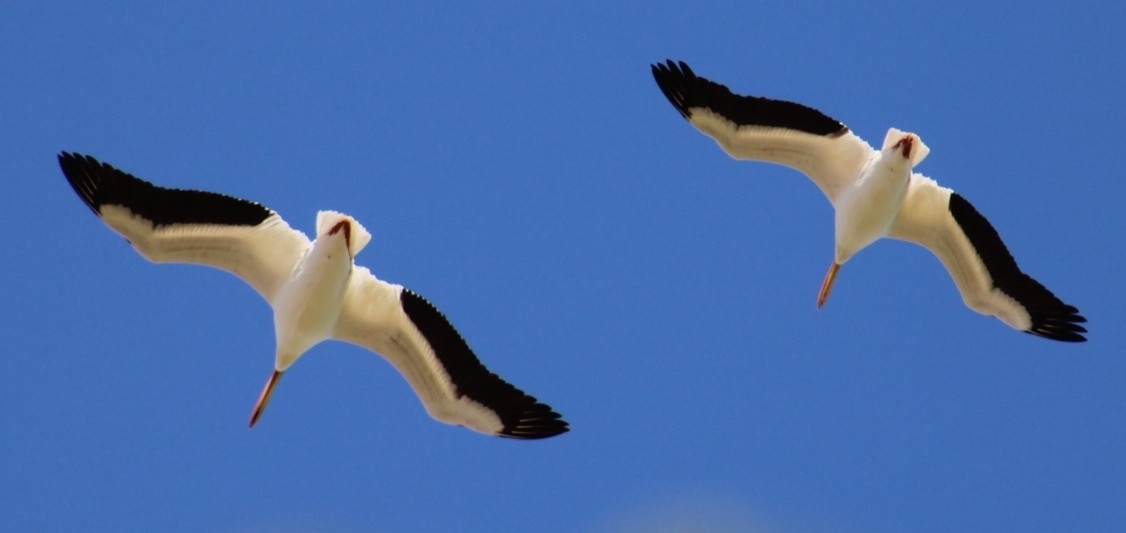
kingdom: Animalia
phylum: Chordata
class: Aves
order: Pelecaniformes
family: Pelecanidae
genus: Pelecanus
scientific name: Pelecanus erythrorhynchos
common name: American white pelican
